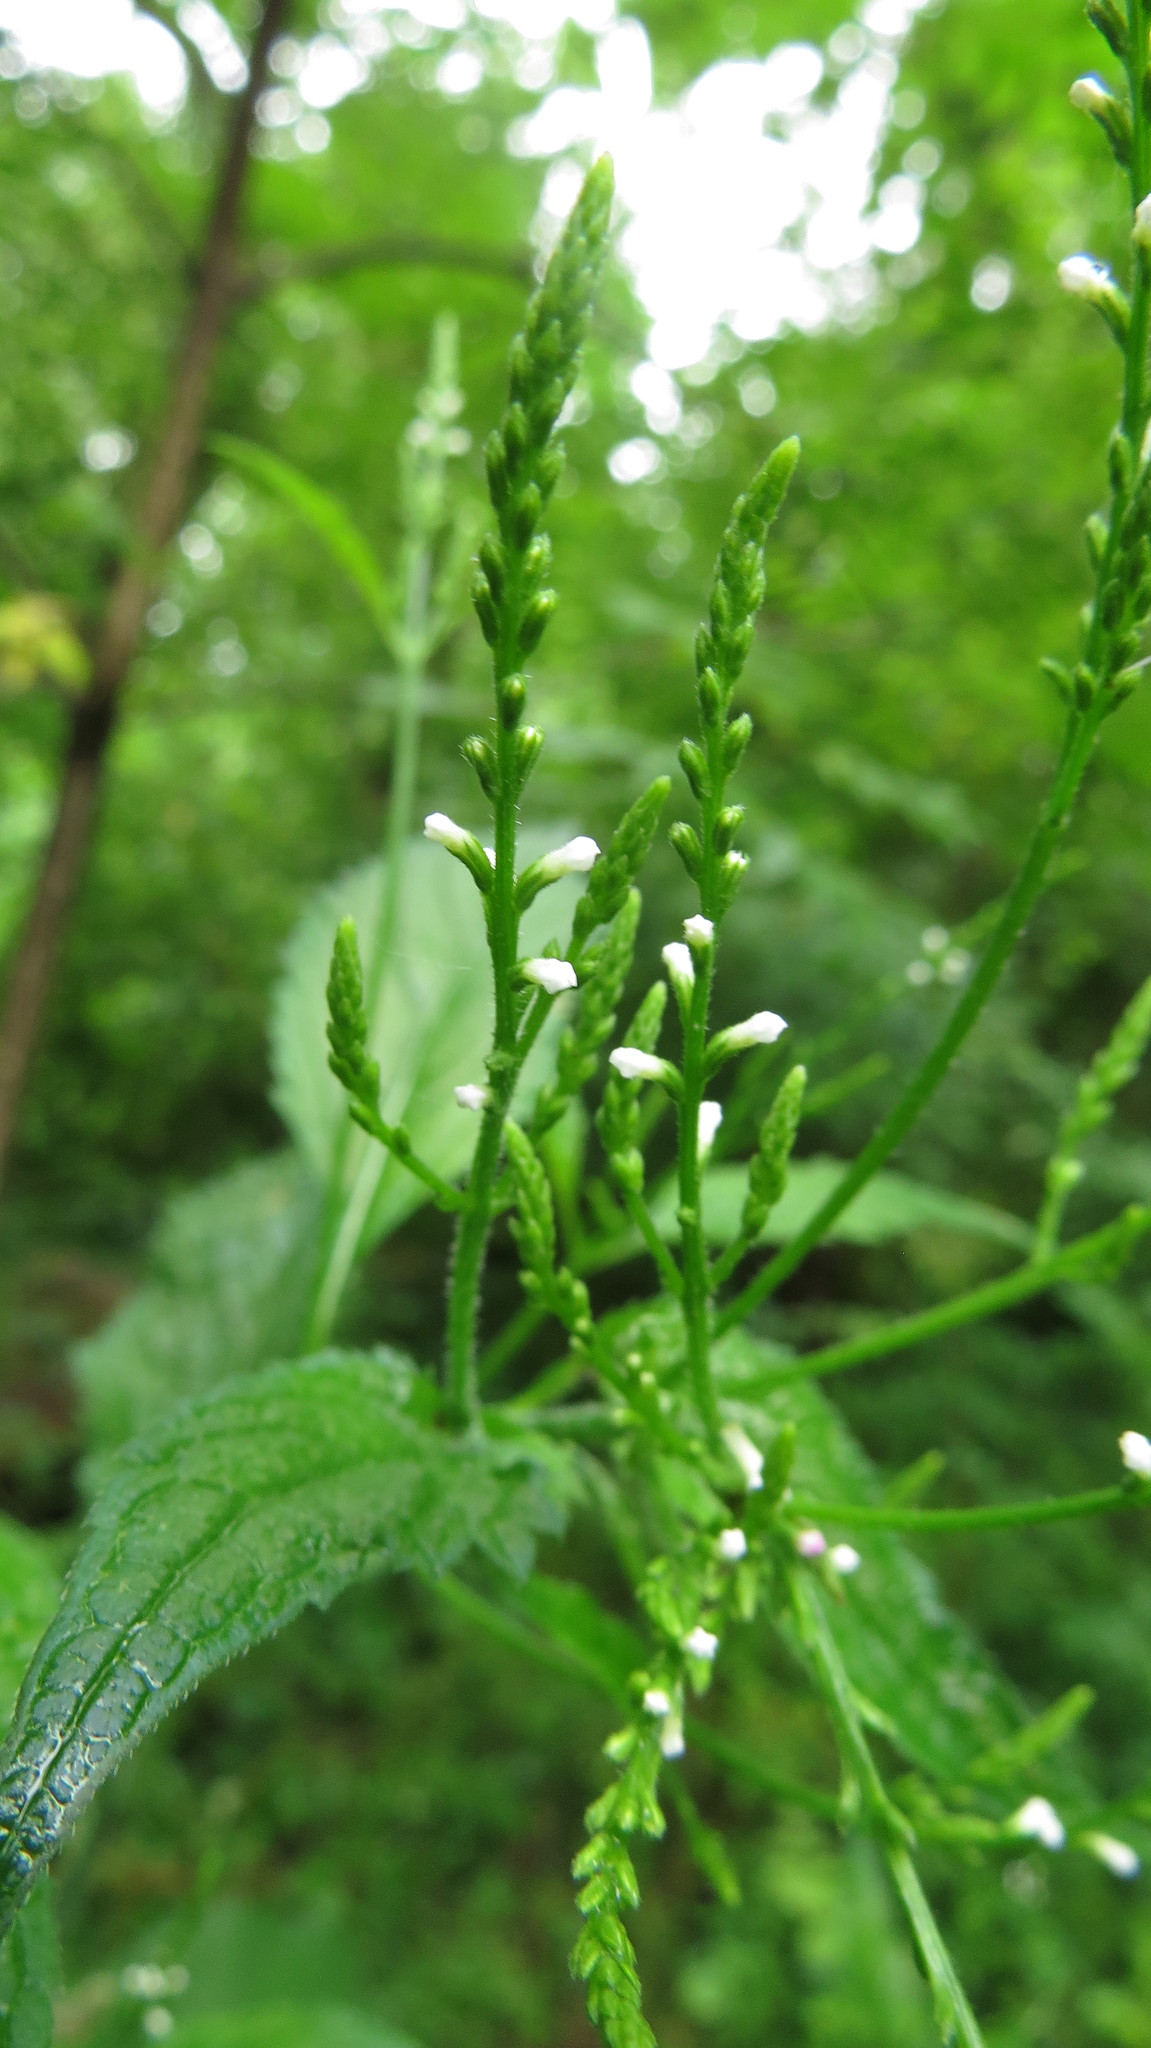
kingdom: Plantae
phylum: Tracheophyta
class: Magnoliopsida
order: Lamiales
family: Verbenaceae
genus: Verbena
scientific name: Verbena urticifolia
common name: Nettle-leaved vervain
